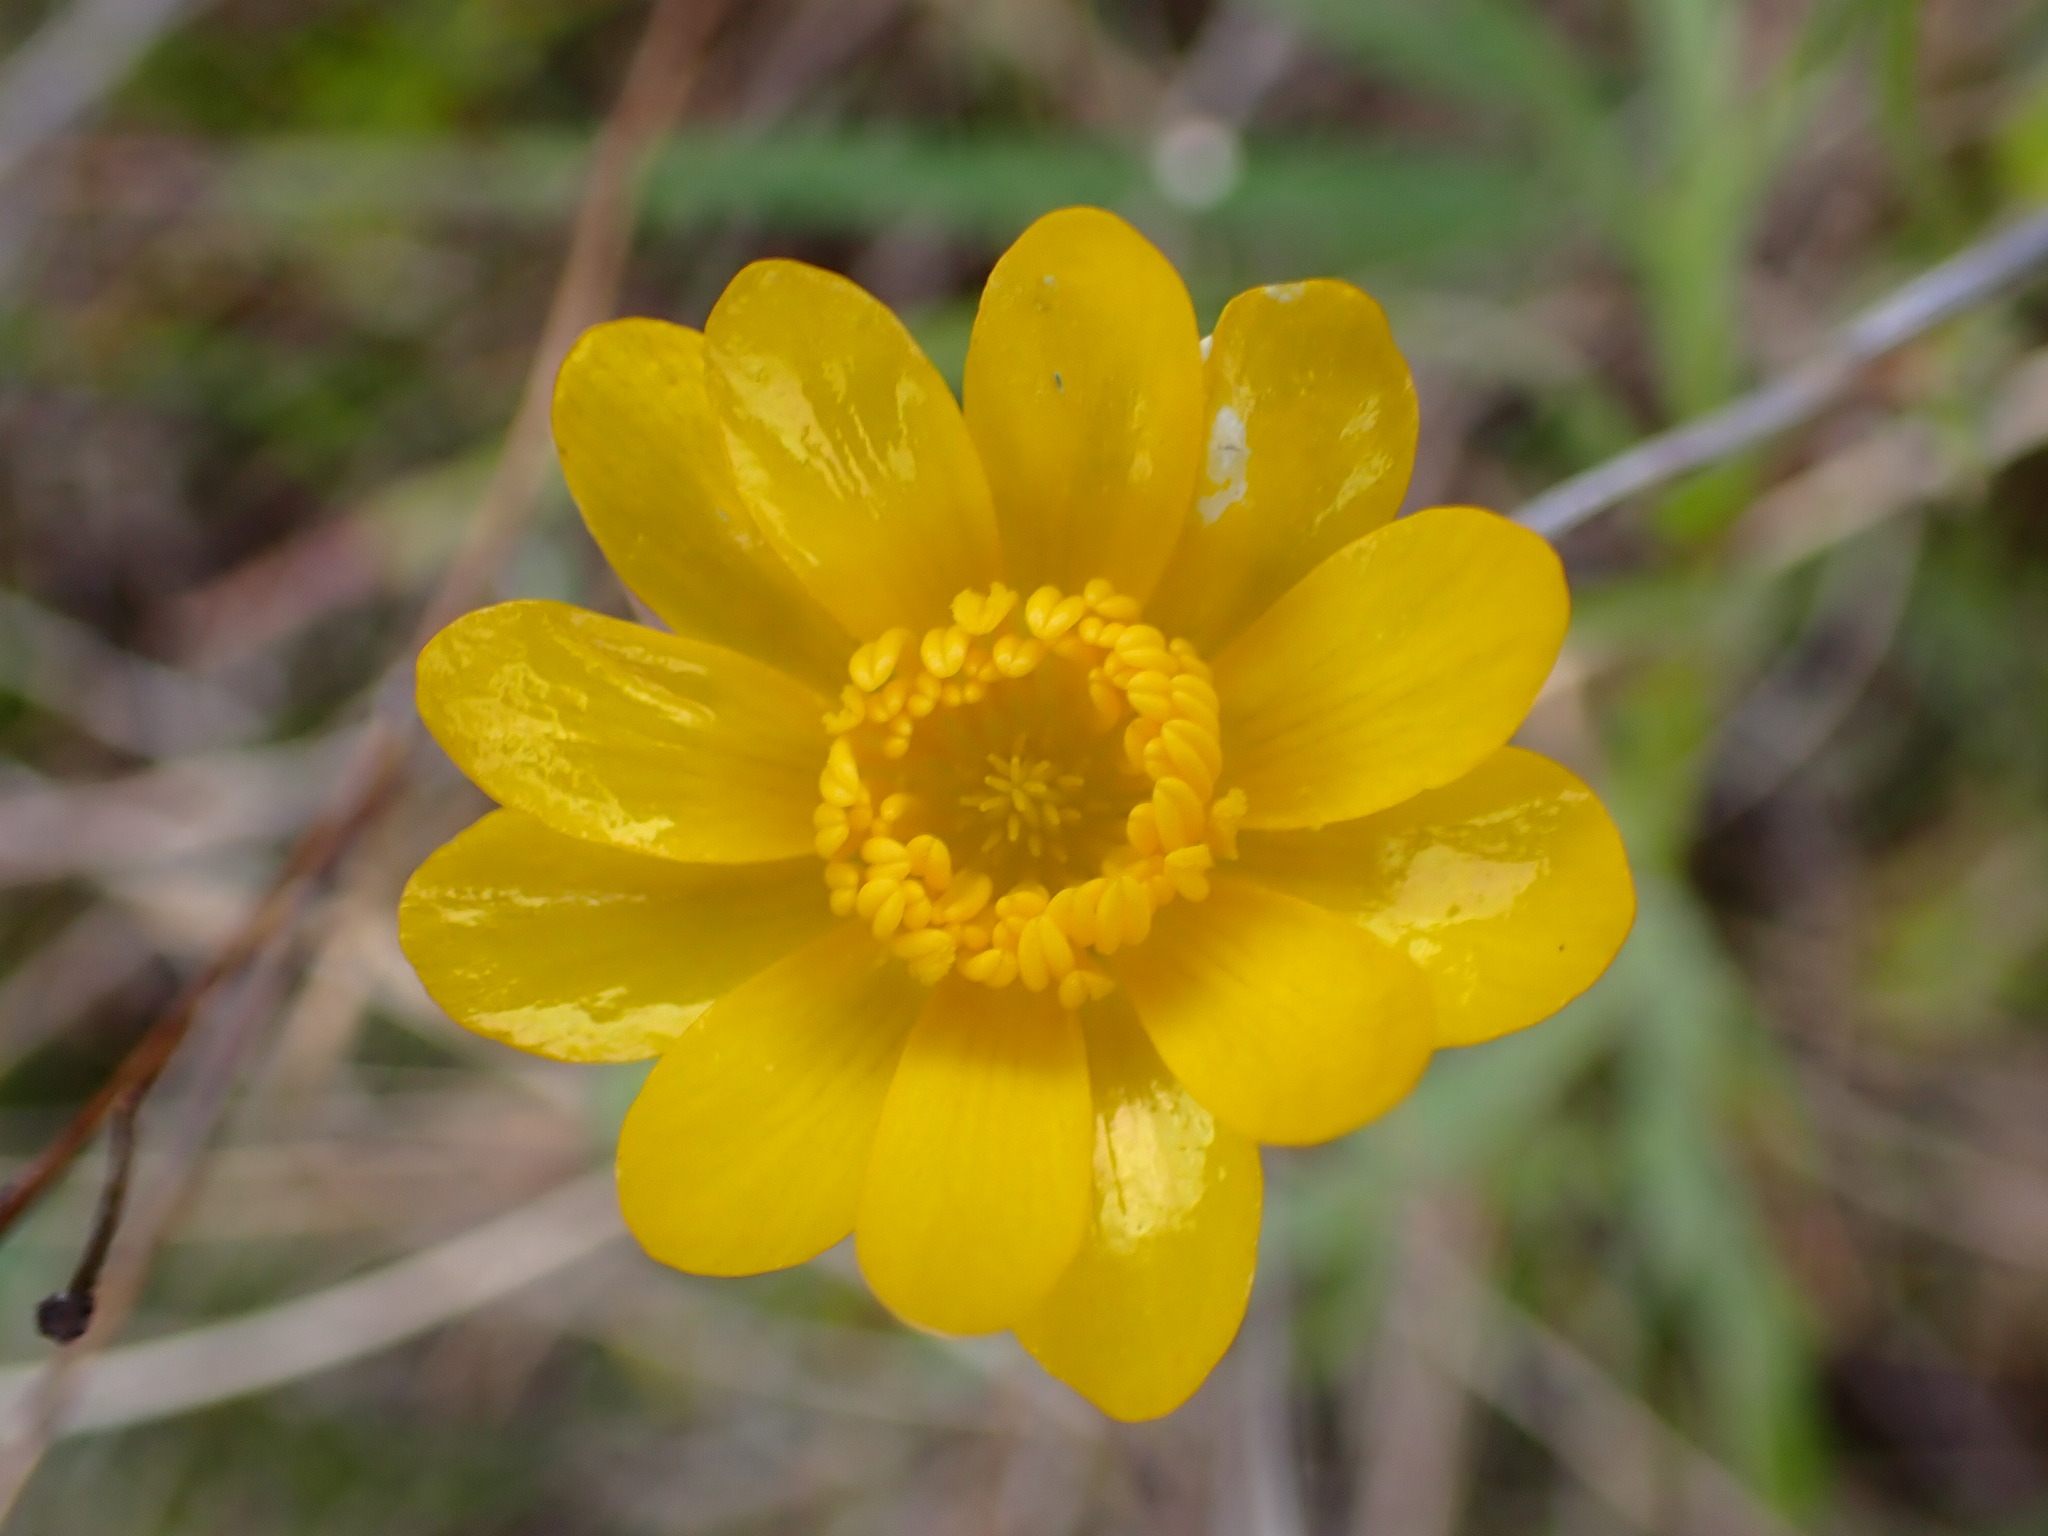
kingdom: Plantae
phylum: Tracheophyta
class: Magnoliopsida
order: Ranunculales
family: Ranunculaceae
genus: Ranunculus
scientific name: Ranunculus californicus
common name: California buttercup
